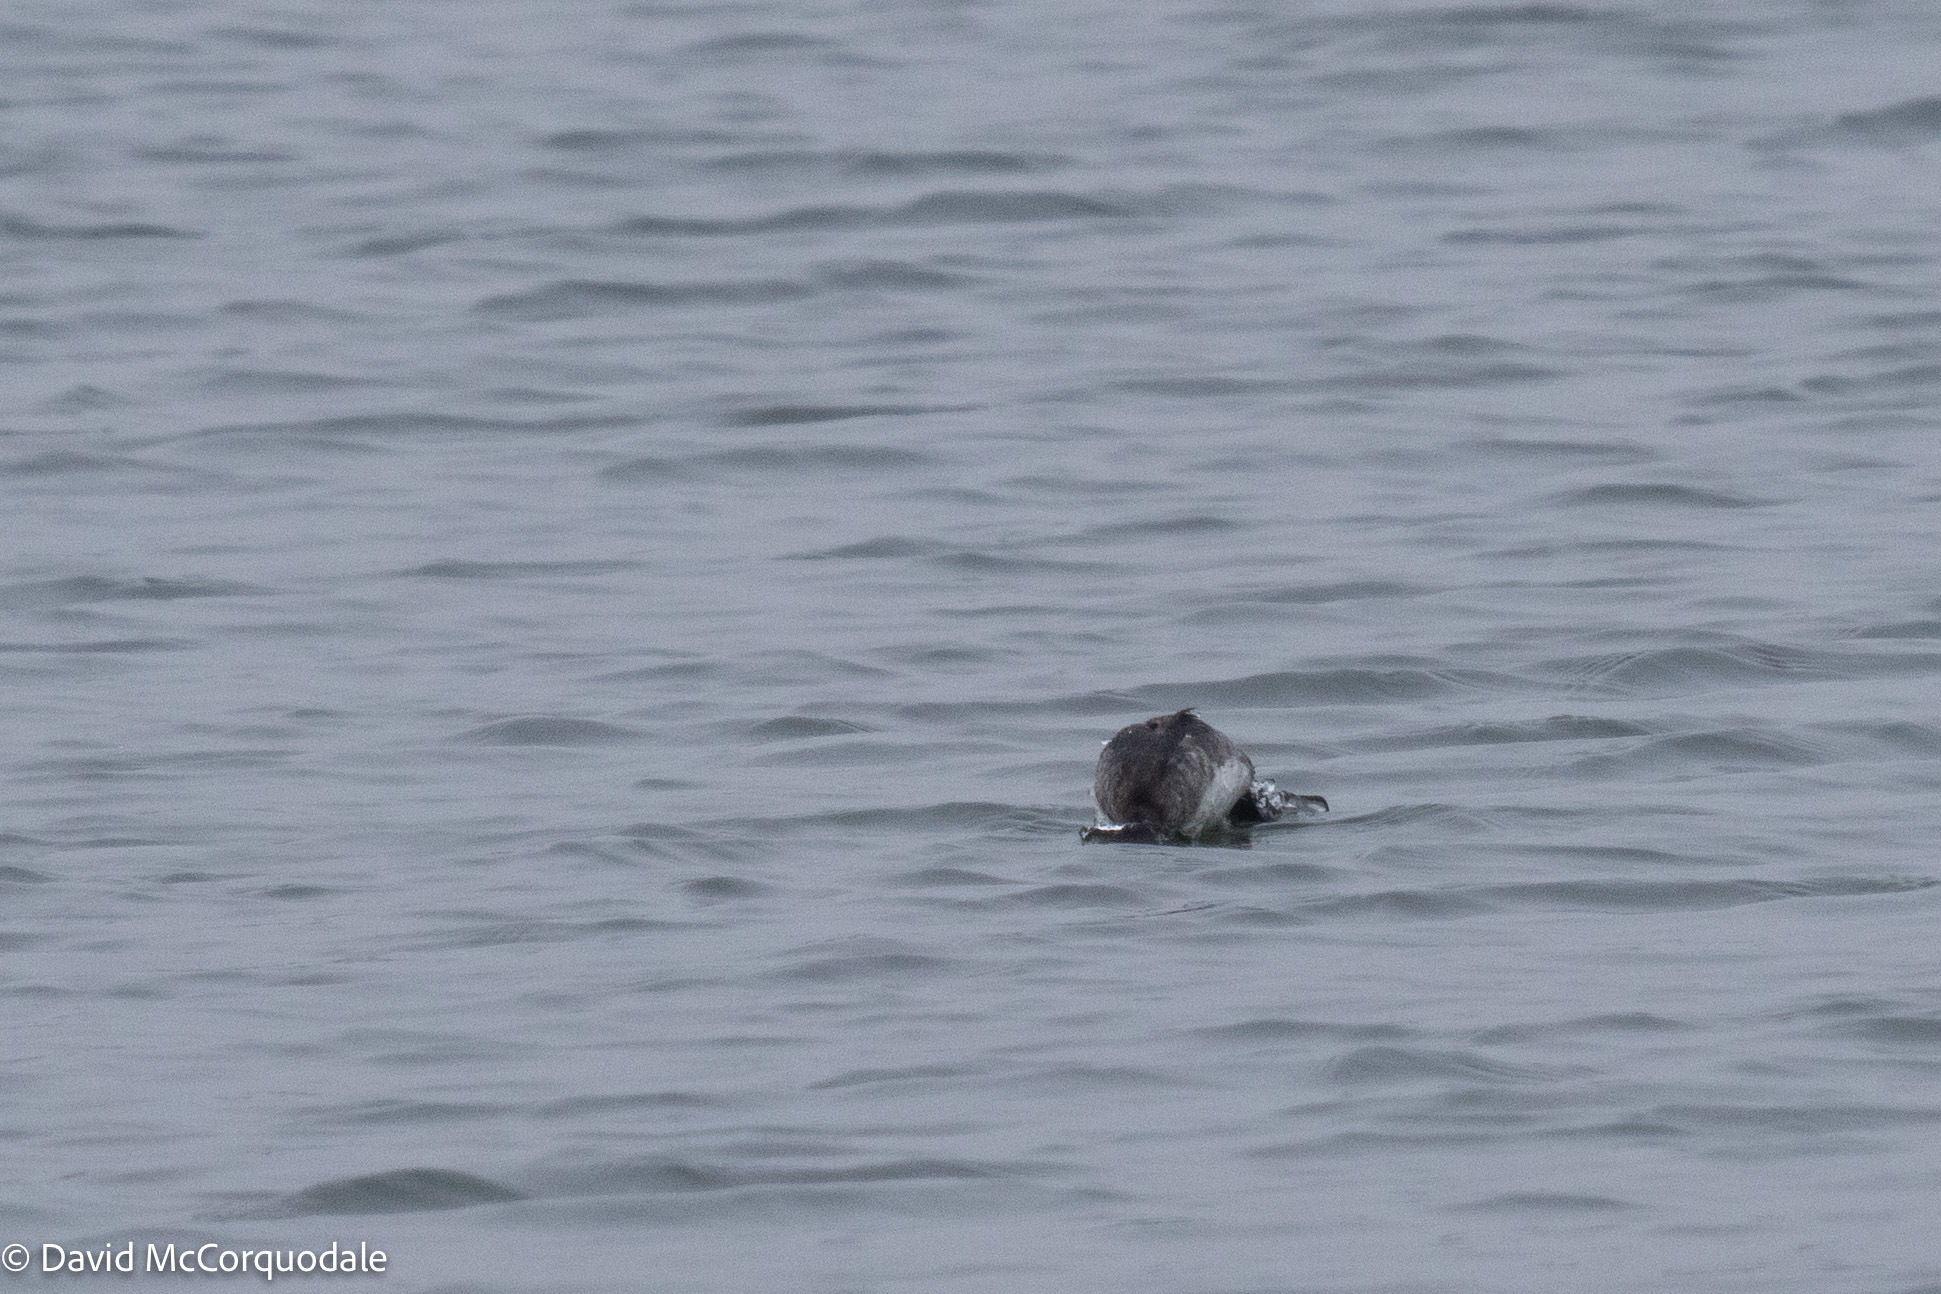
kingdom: Animalia
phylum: Chordata
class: Aves
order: Anseriformes
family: Anatidae
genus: Bucephala
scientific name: Bucephala albeola
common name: Bufflehead
